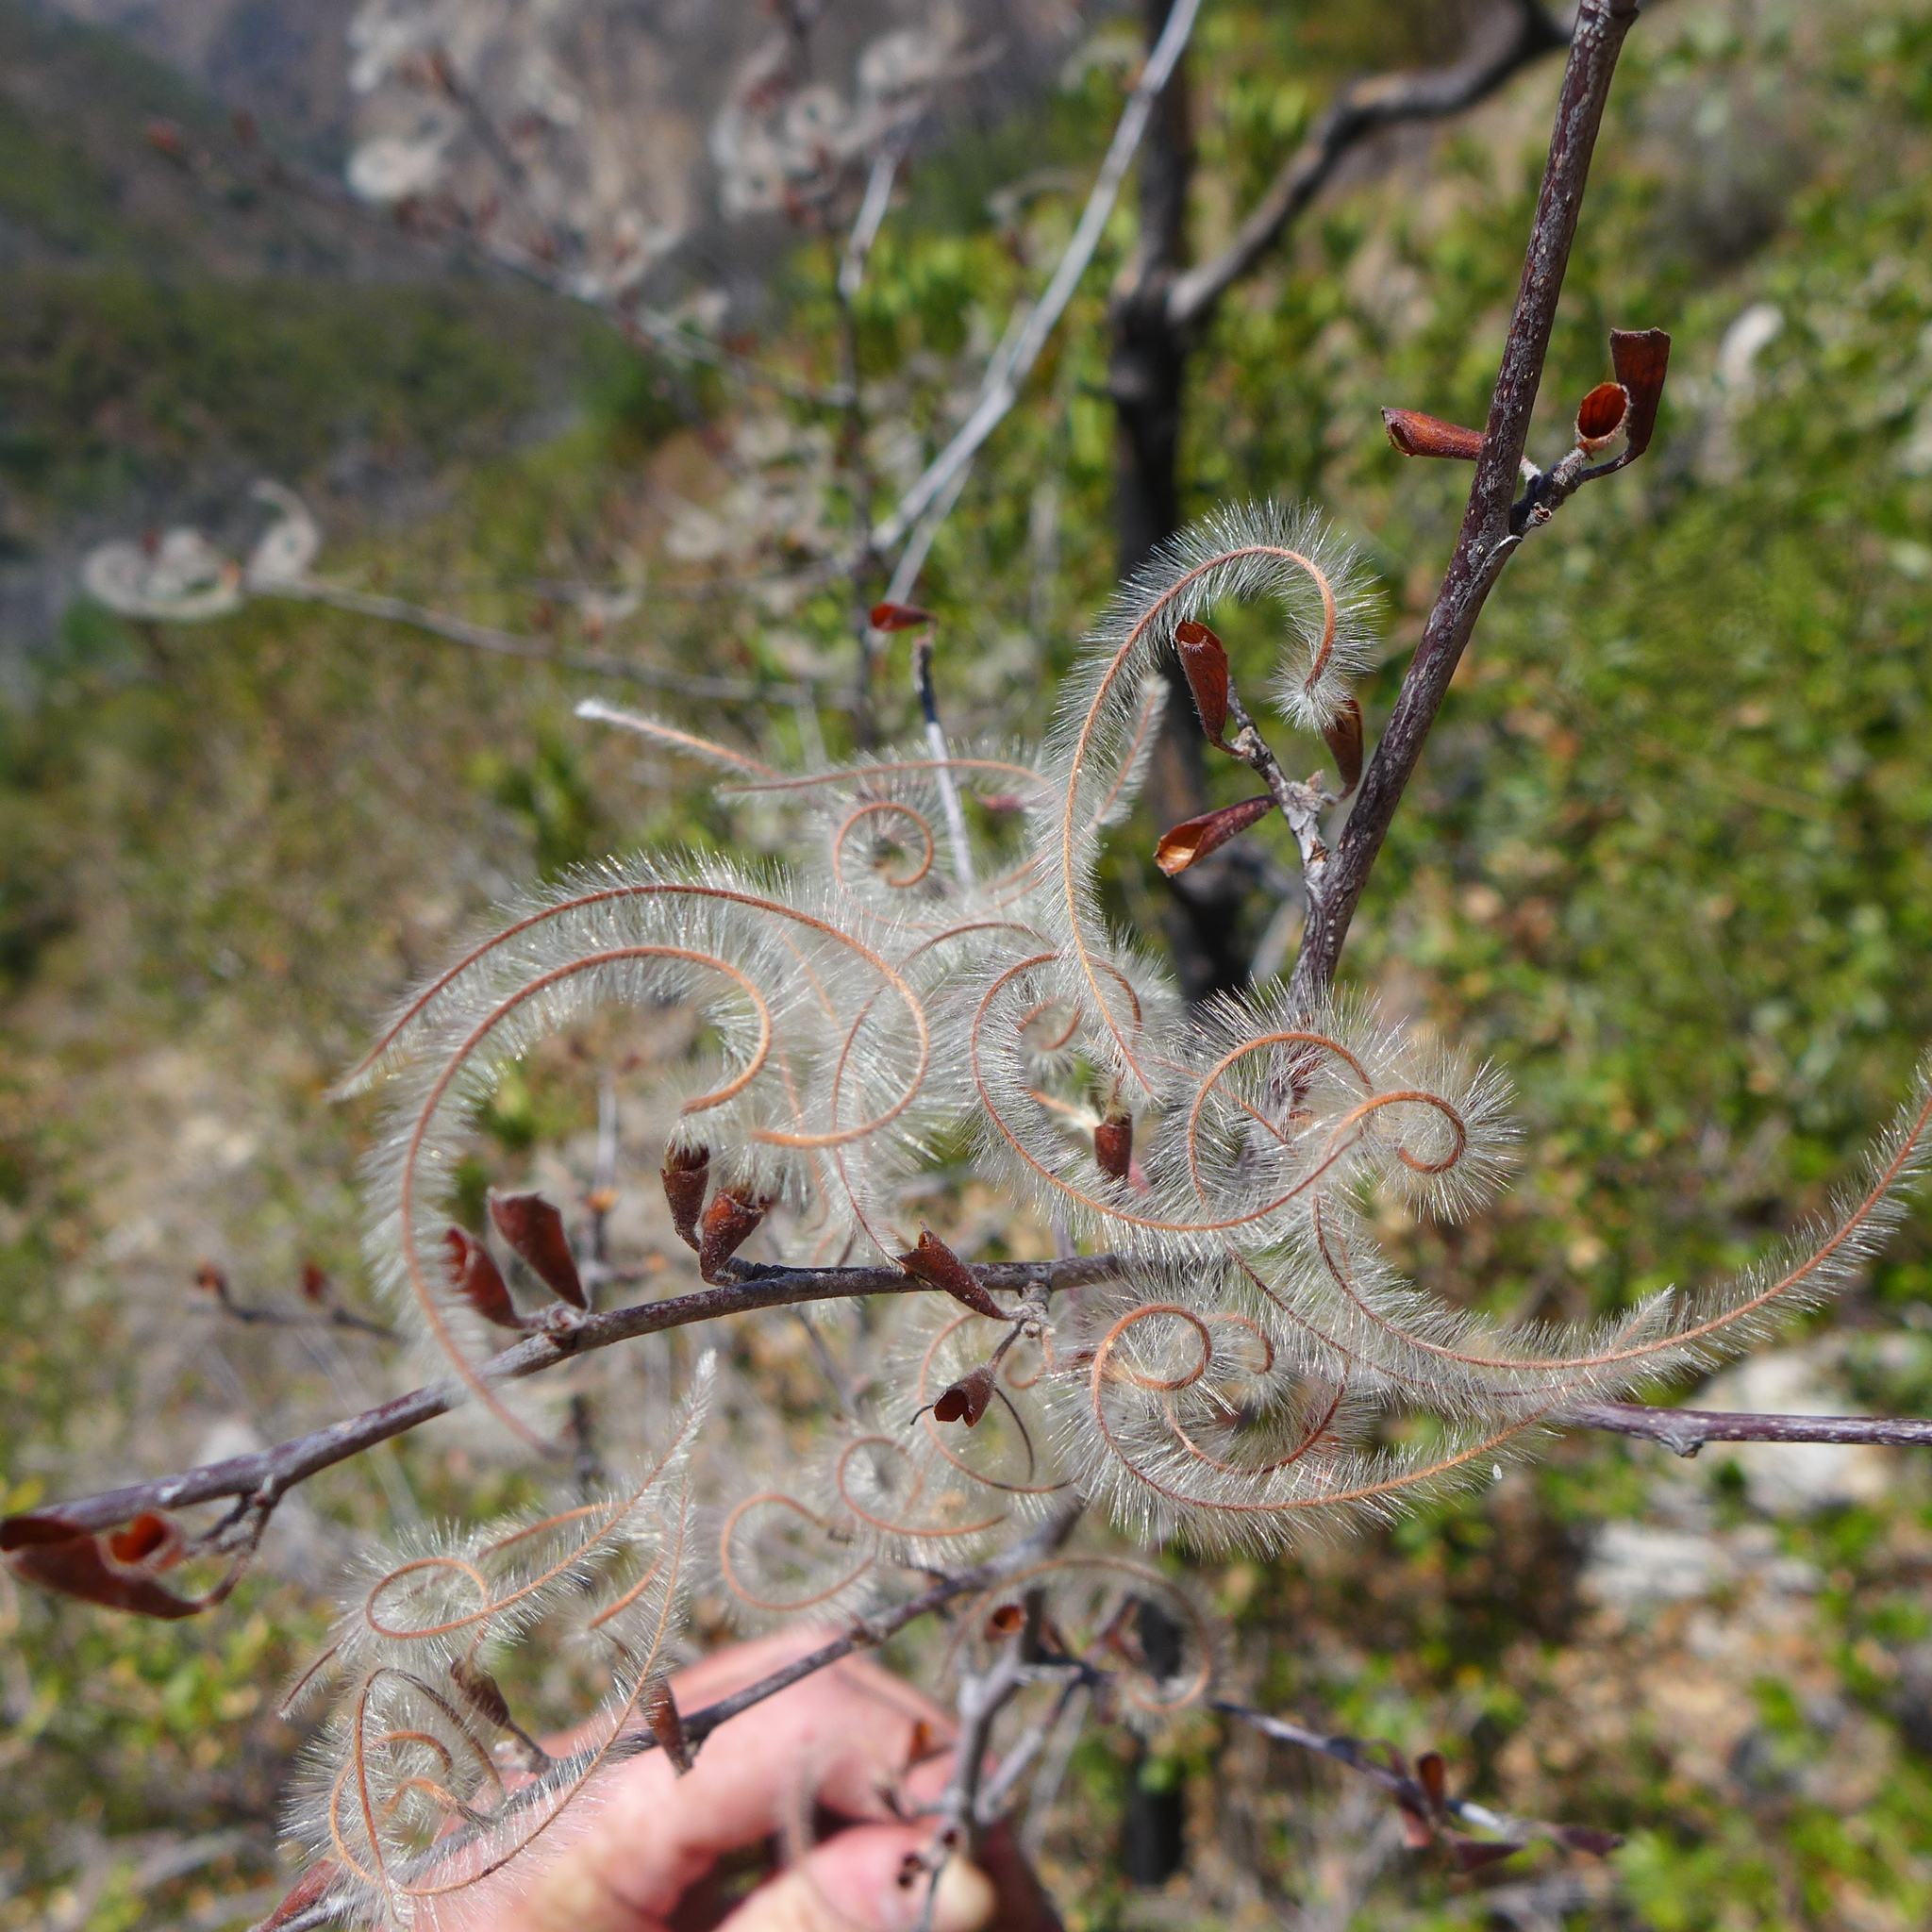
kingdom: Plantae
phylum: Tracheophyta
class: Magnoliopsida
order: Rosales
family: Rosaceae
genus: Cercocarpus
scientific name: Cercocarpus betuloides
